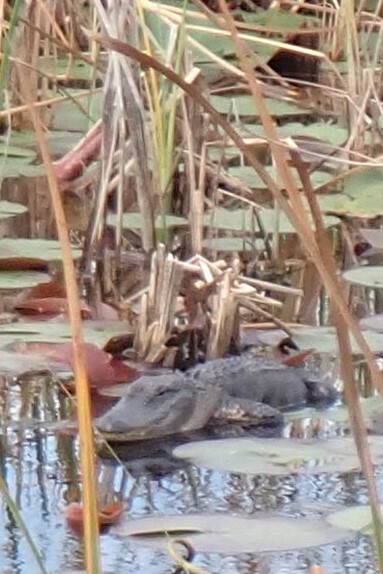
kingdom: Animalia
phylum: Chordata
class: Crocodylia
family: Alligatoridae
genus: Alligator
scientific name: Alligator mississippiensis
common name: American alligator
